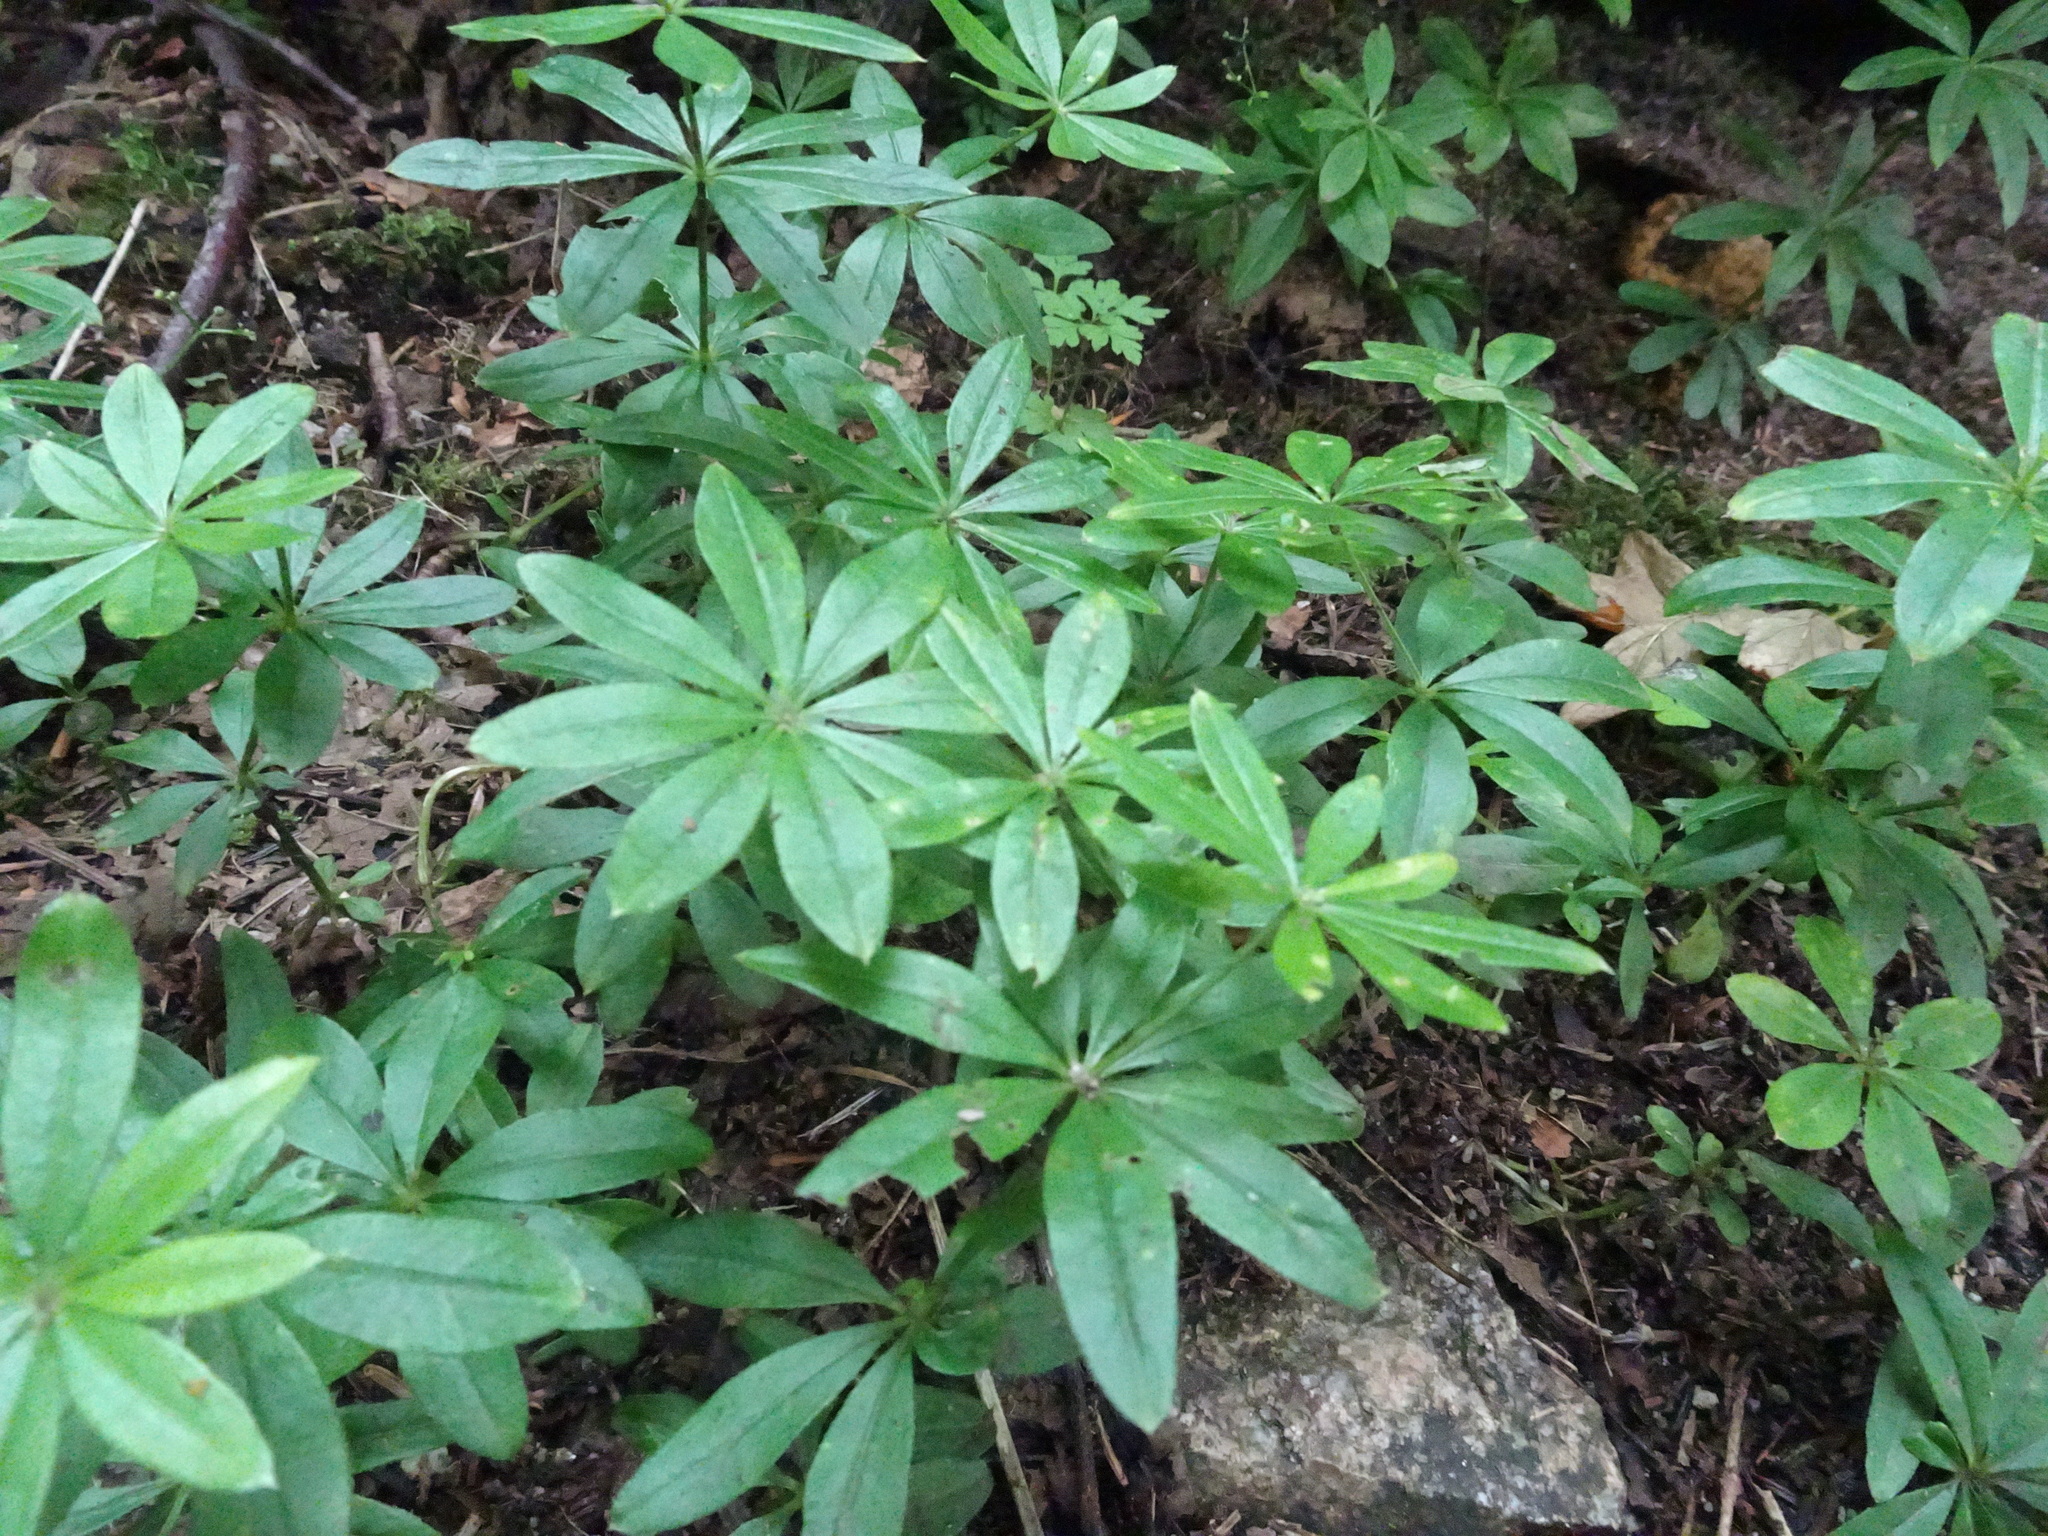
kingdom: Plantae
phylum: Tracheophyta
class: Magnoliopsida
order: Gentianales
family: Rubiaceae
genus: Galium
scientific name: Galium odoratum
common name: Sweet woodruff
